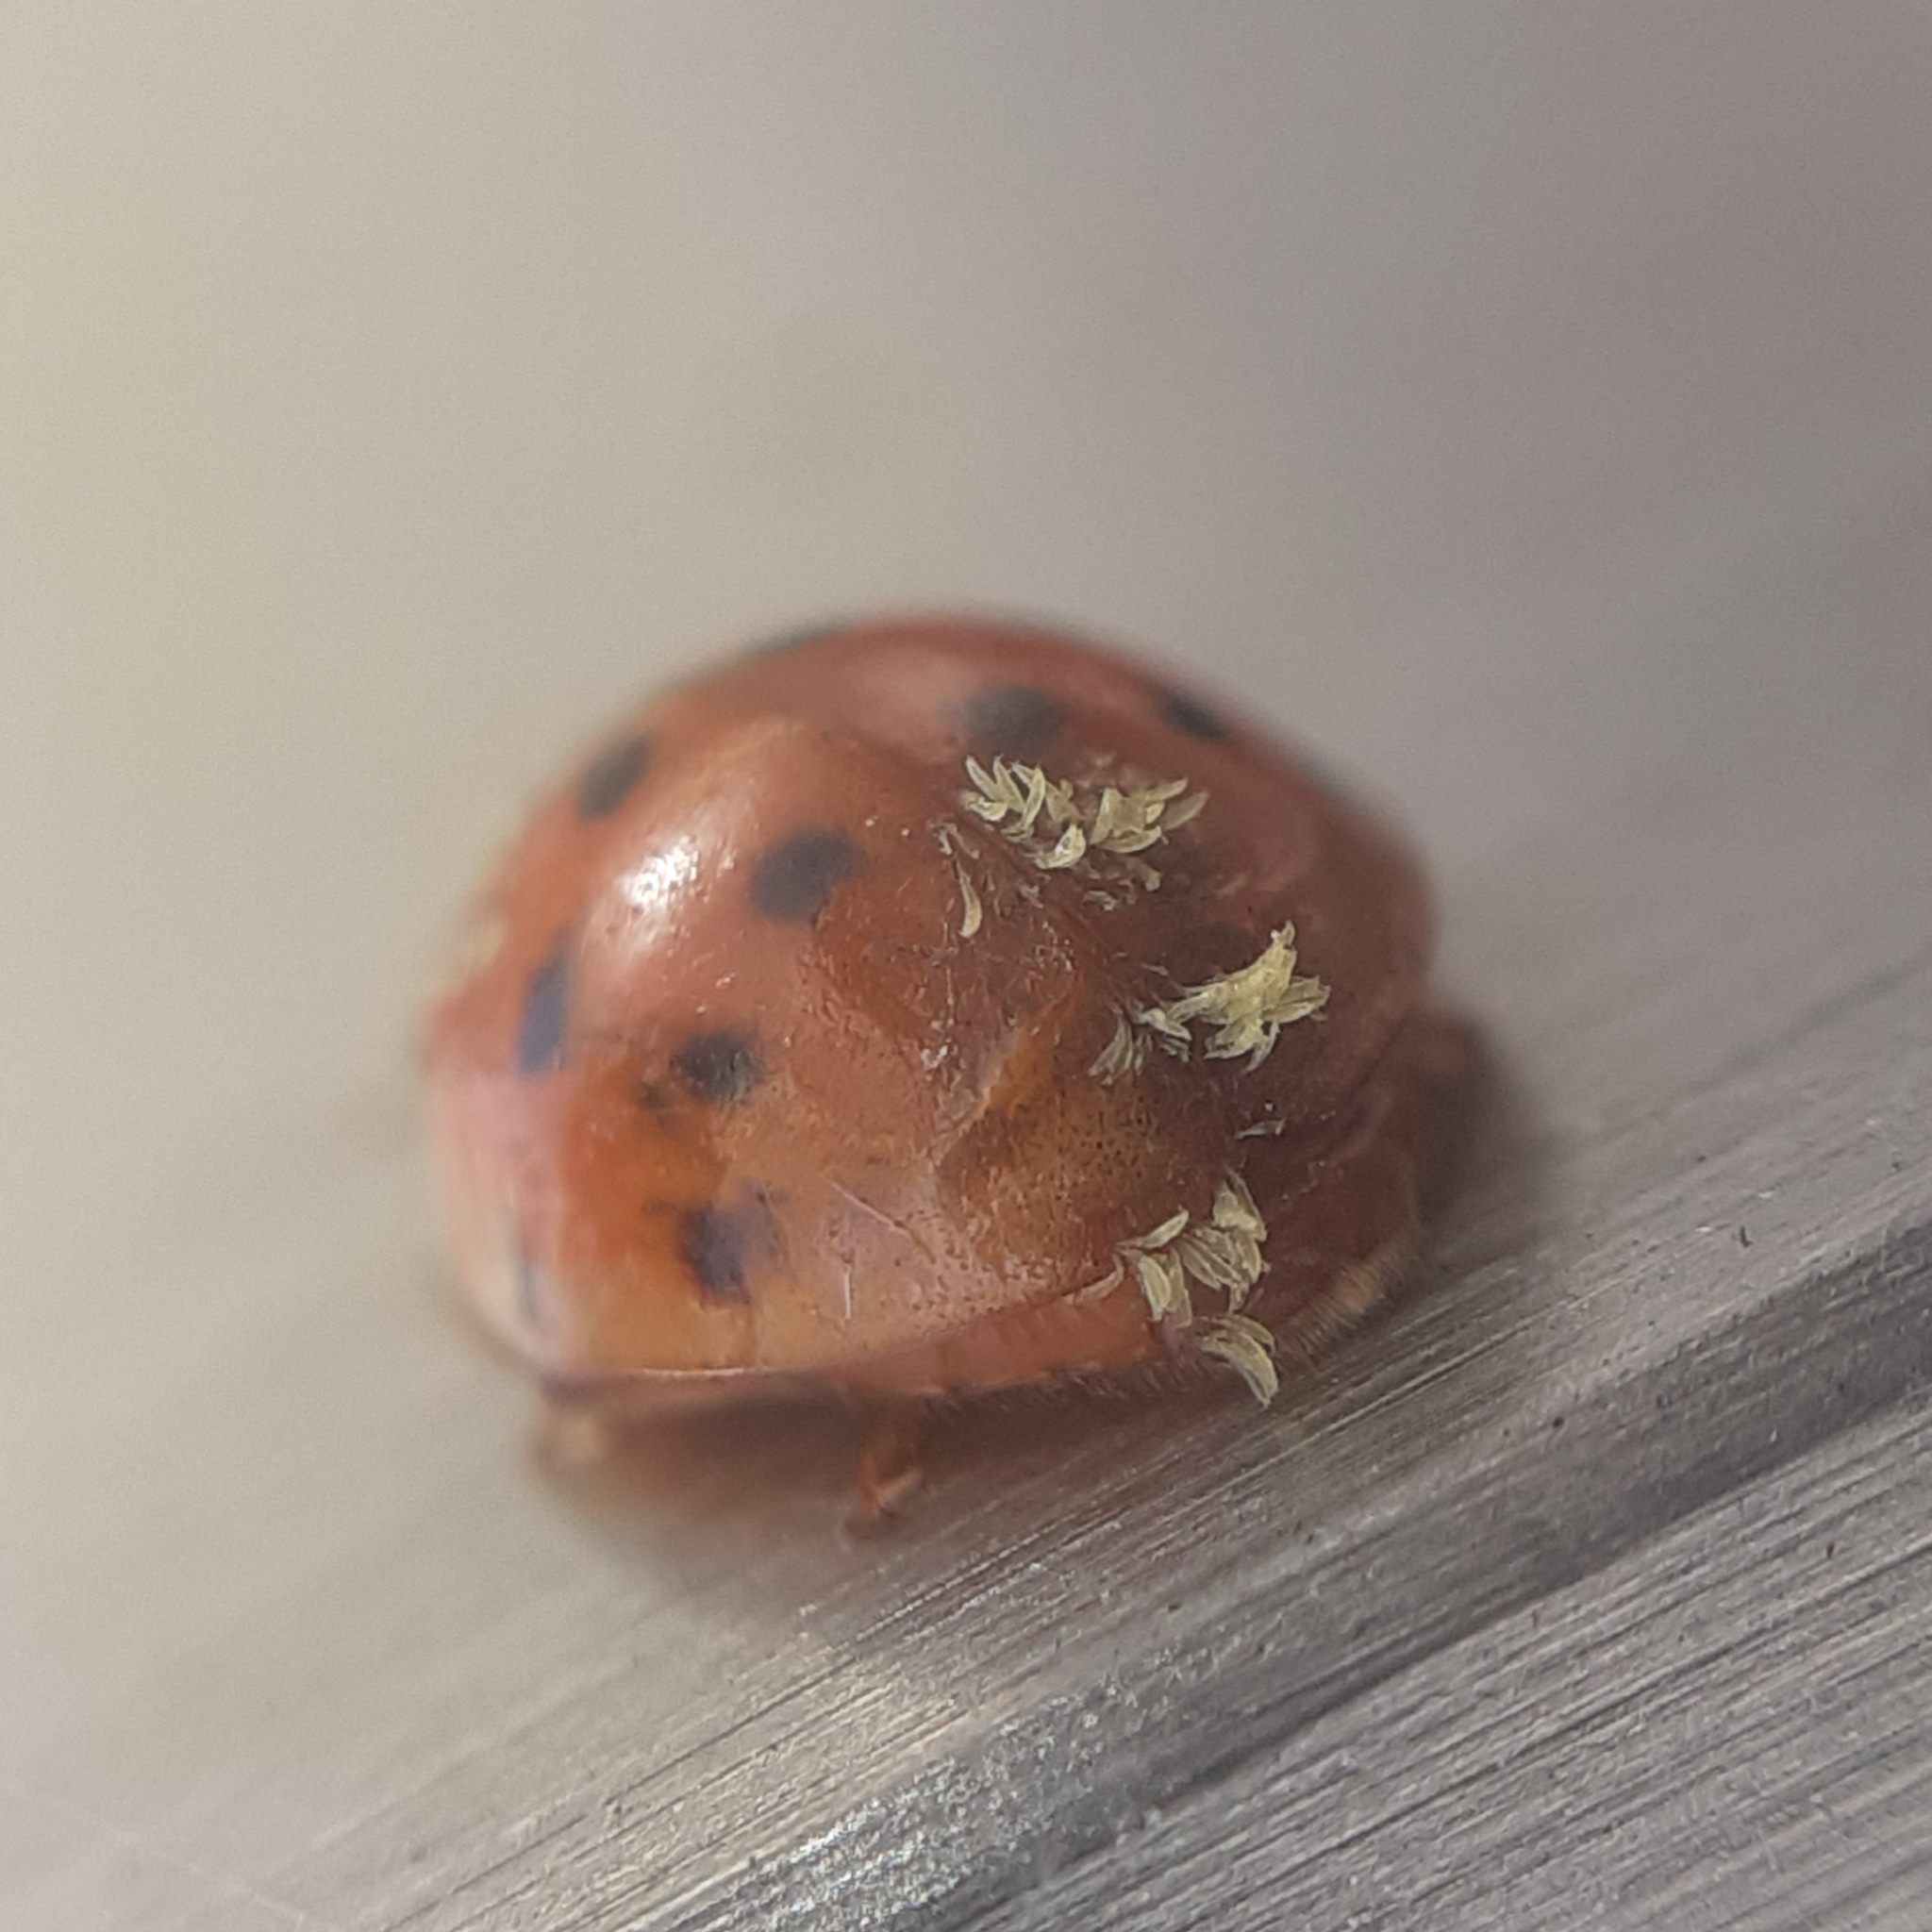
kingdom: Fungi
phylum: Ascomycota
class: Laboulbeniomycetes
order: Laboulbeniales
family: Laboulbeniaceae
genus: Hesperomyces
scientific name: Hesperomyces harmoniae
